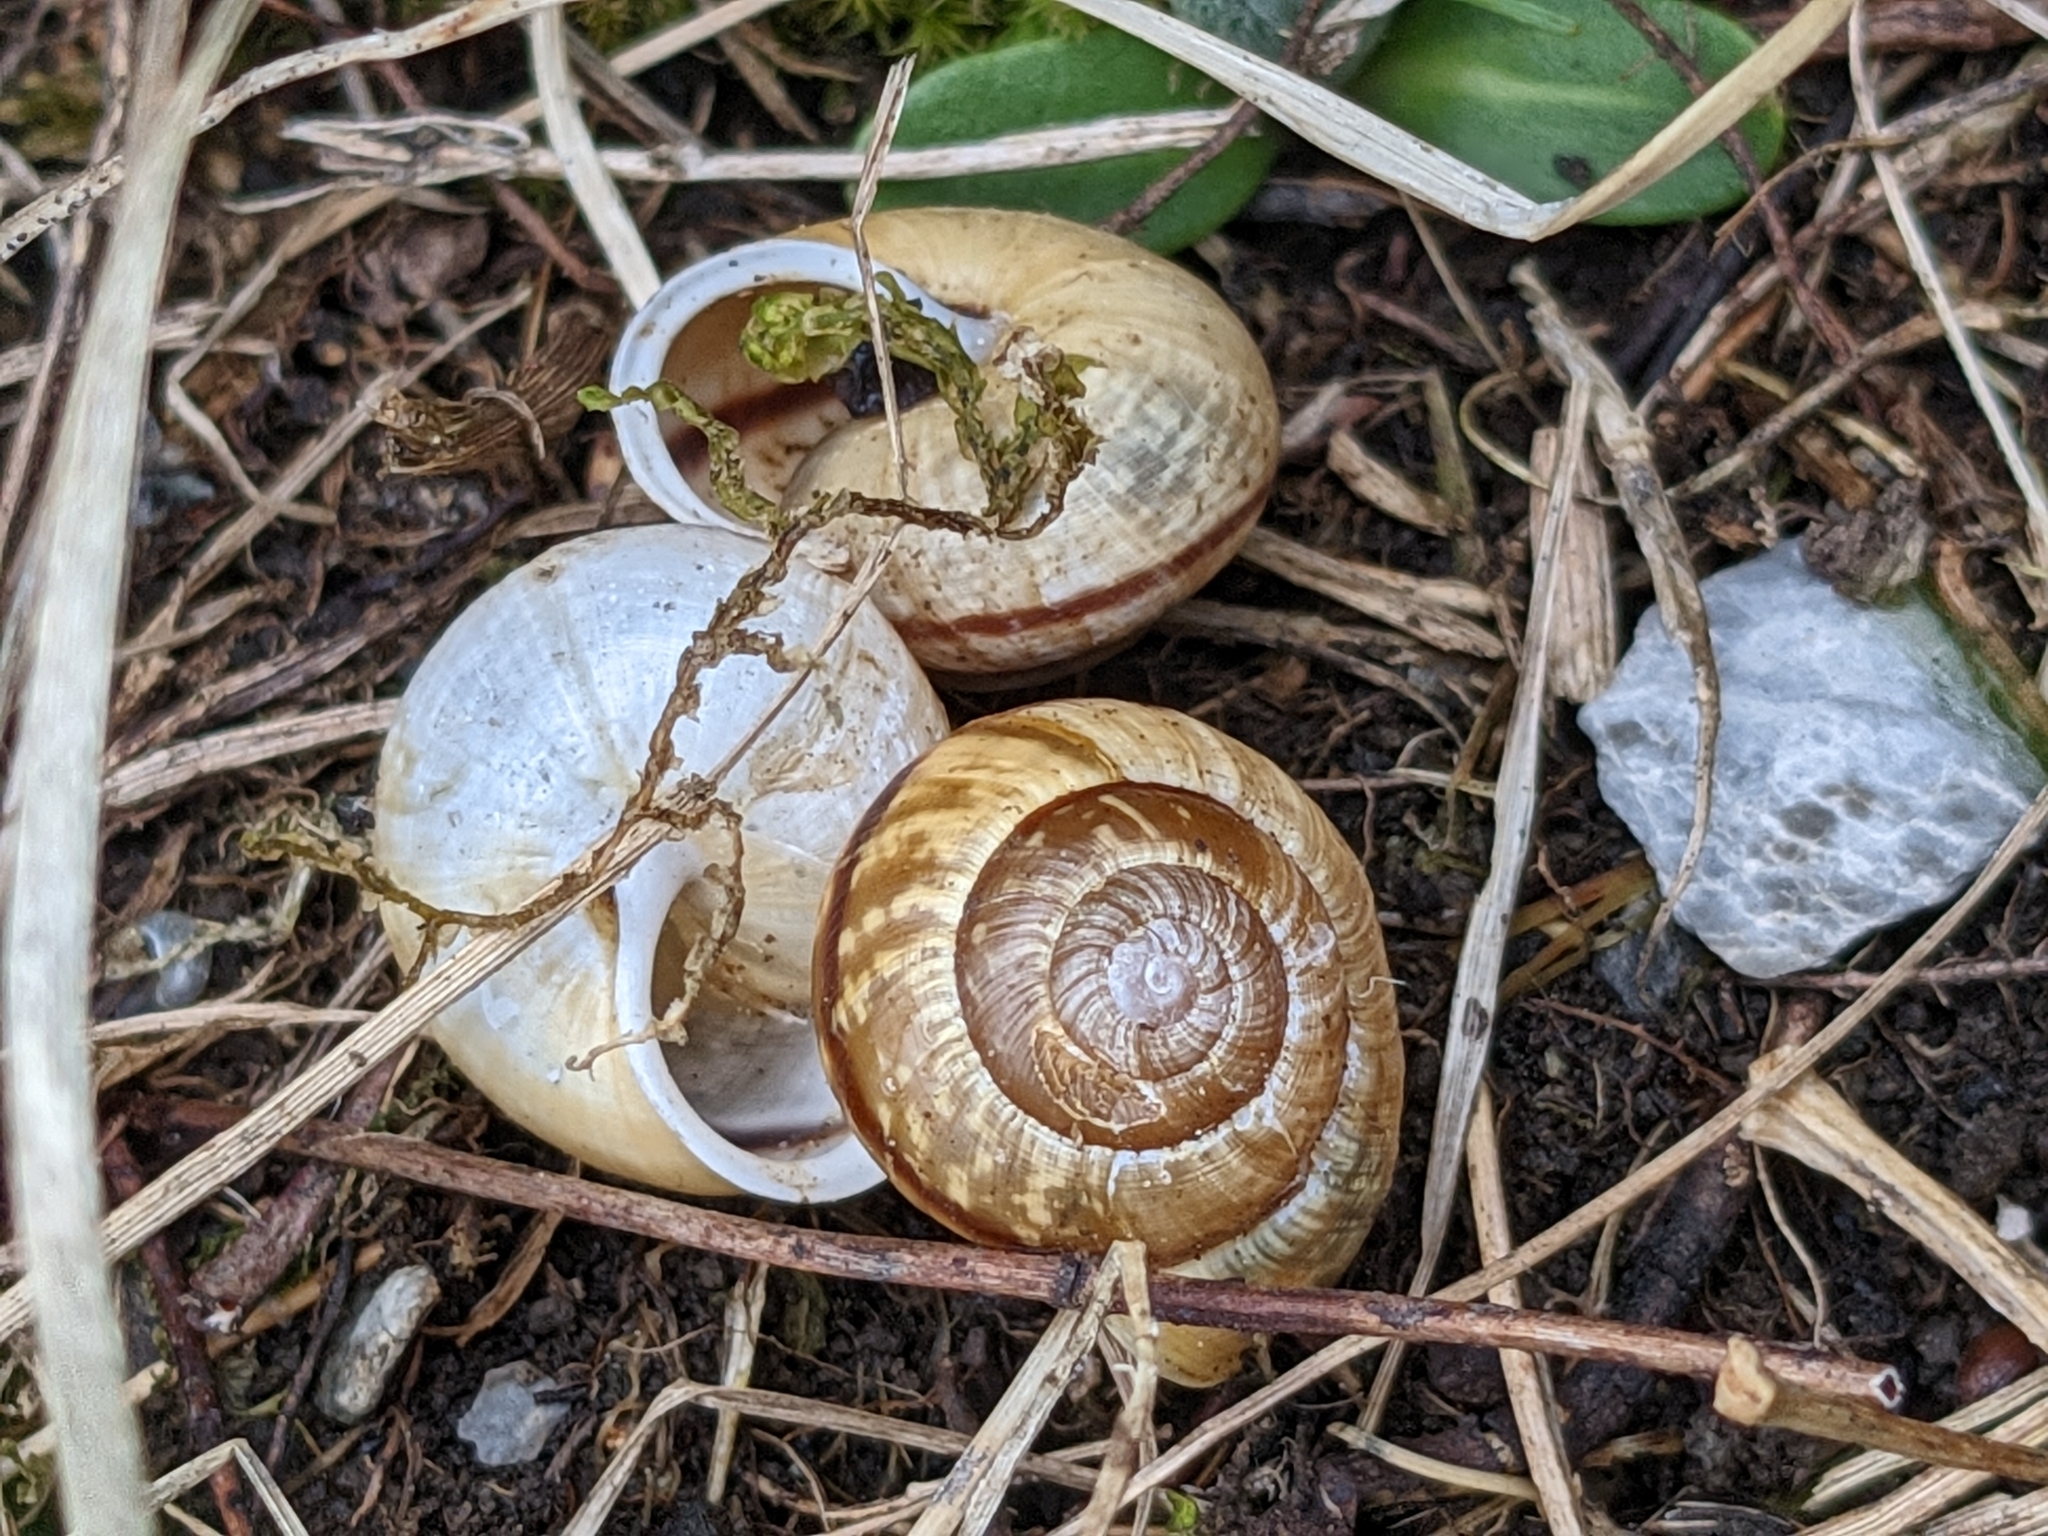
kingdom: Animalia
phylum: Mollusca
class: Gastropoda
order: Stylommatophora
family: Helicidae
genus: Arianta
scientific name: Arianta arbustorum
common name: Copse snail
